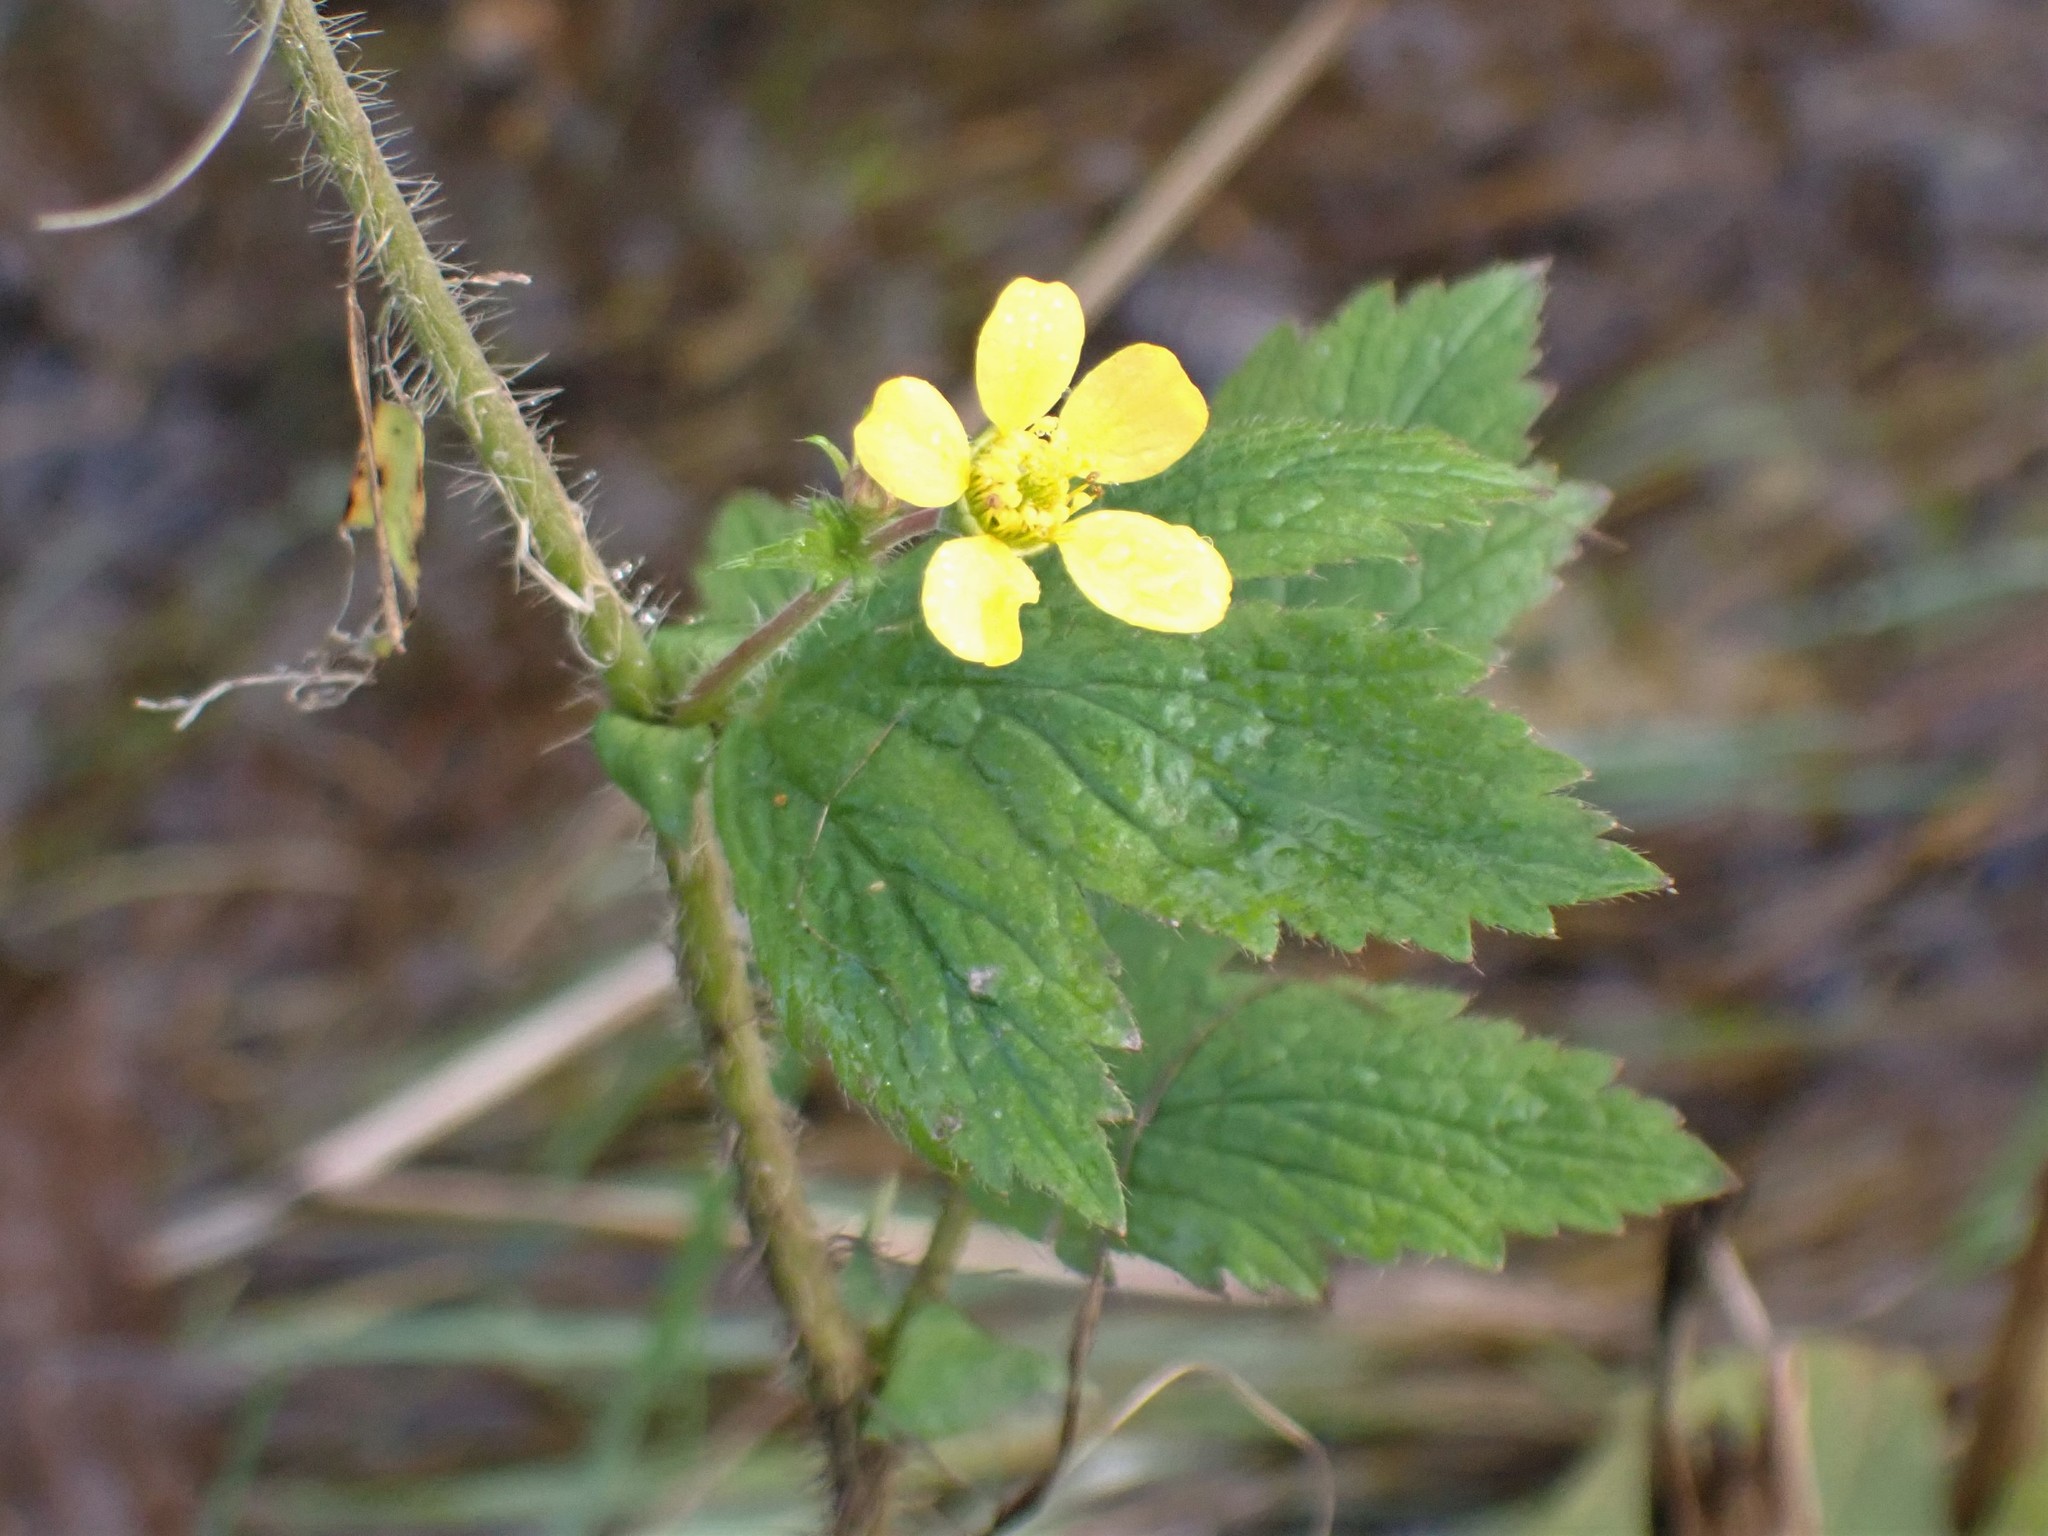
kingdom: Plantae
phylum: Tracheophyta
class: Magnoliopsida
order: Rosales
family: Rosaceae
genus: Geum
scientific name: Geum macrophyllum
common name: Large-leaved avens
